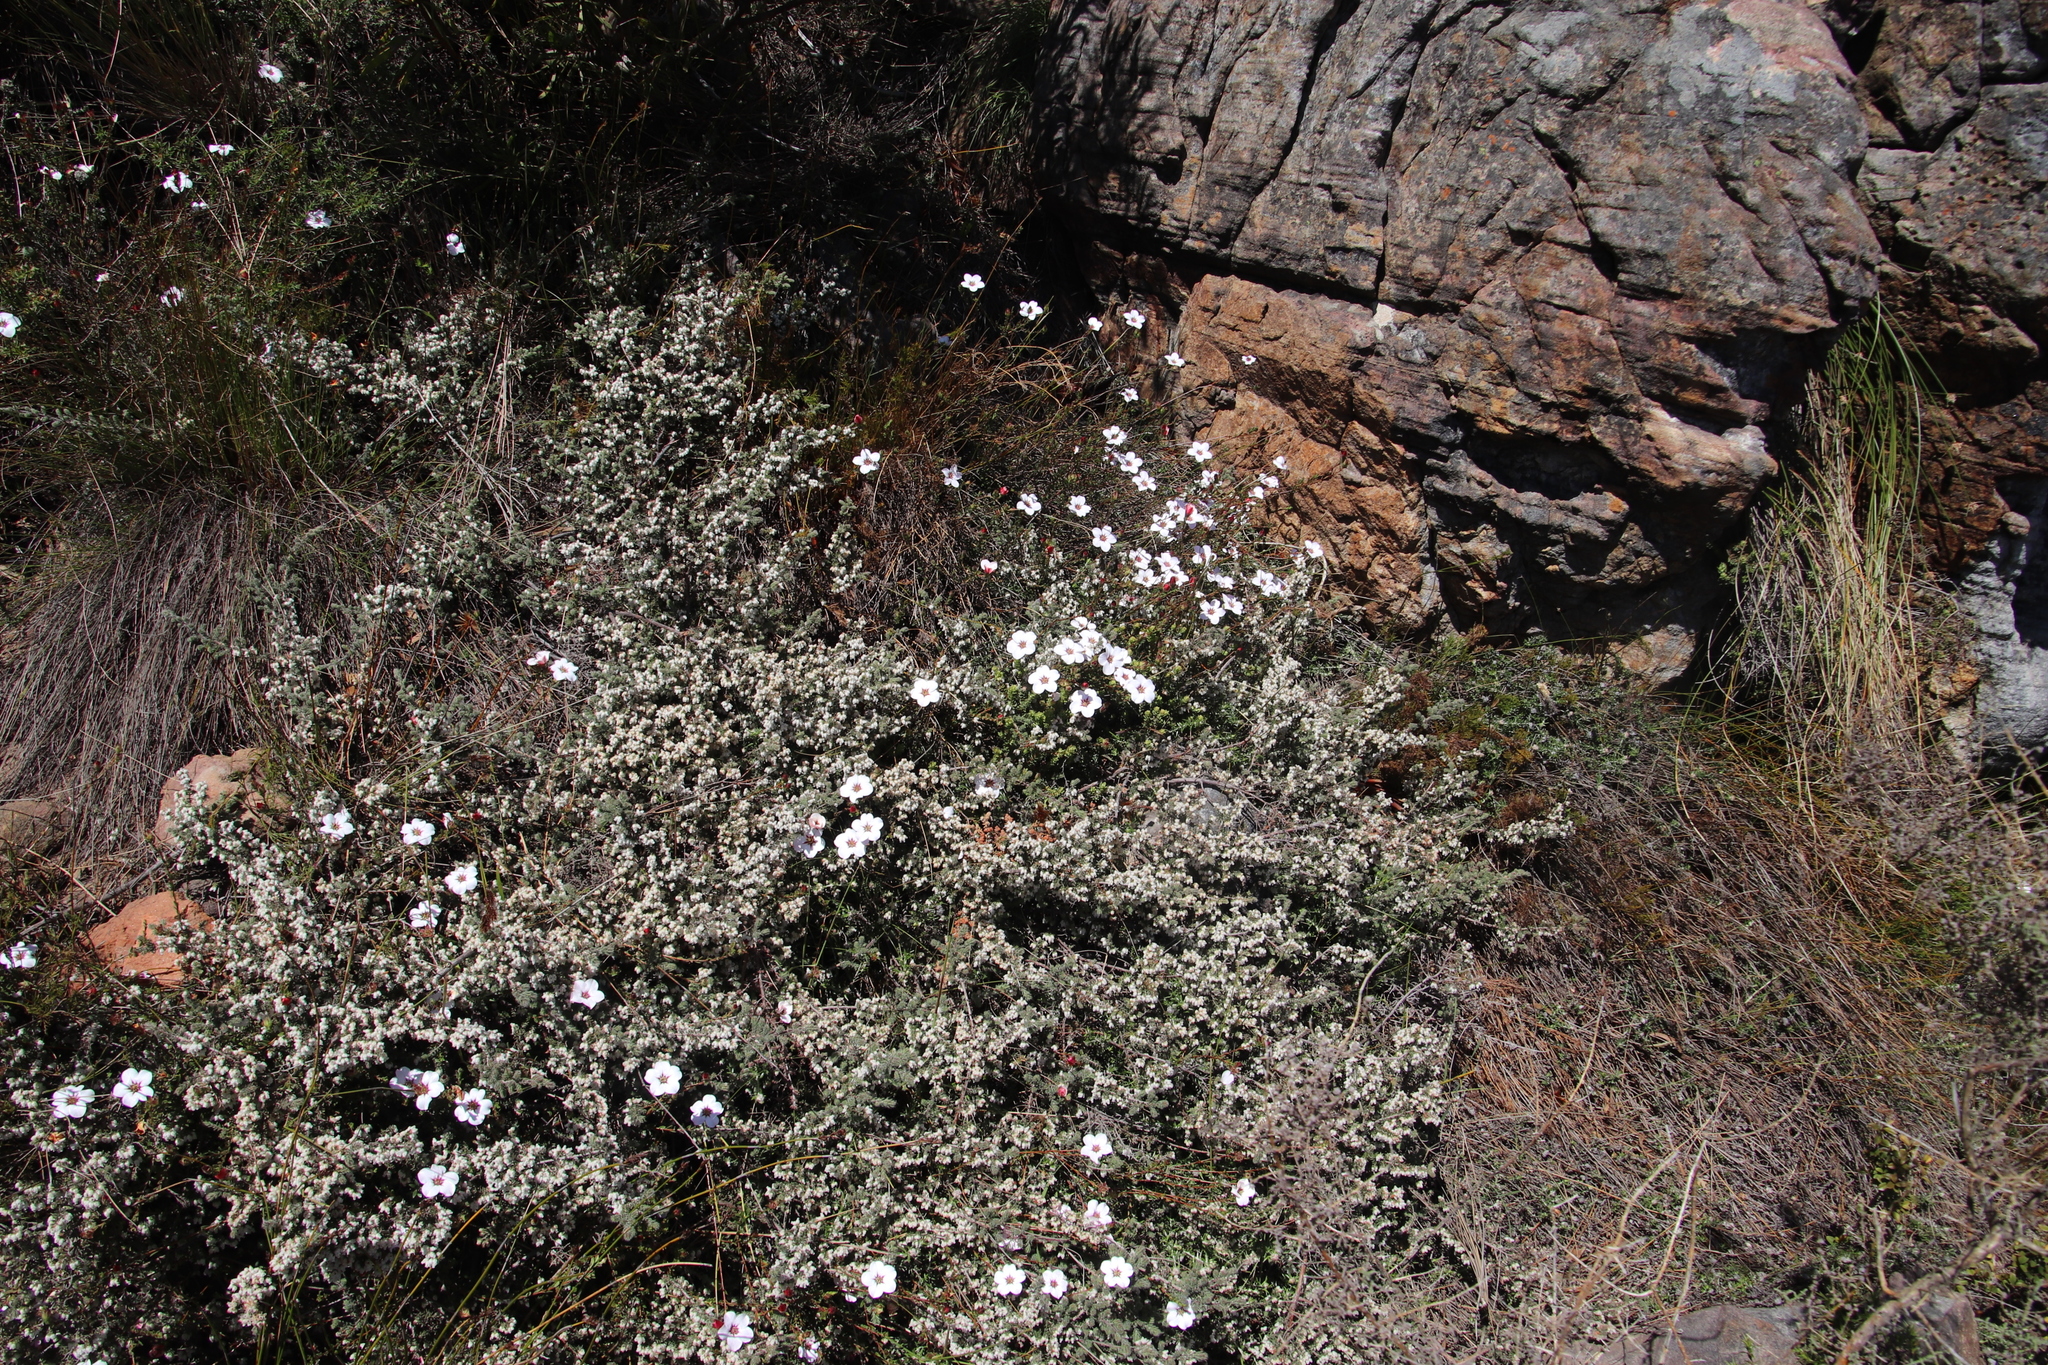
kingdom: Plantae
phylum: Tracheophyta
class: Magnoliopsida
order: Ericales
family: Ericaceae
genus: Erica
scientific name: Erica totta
